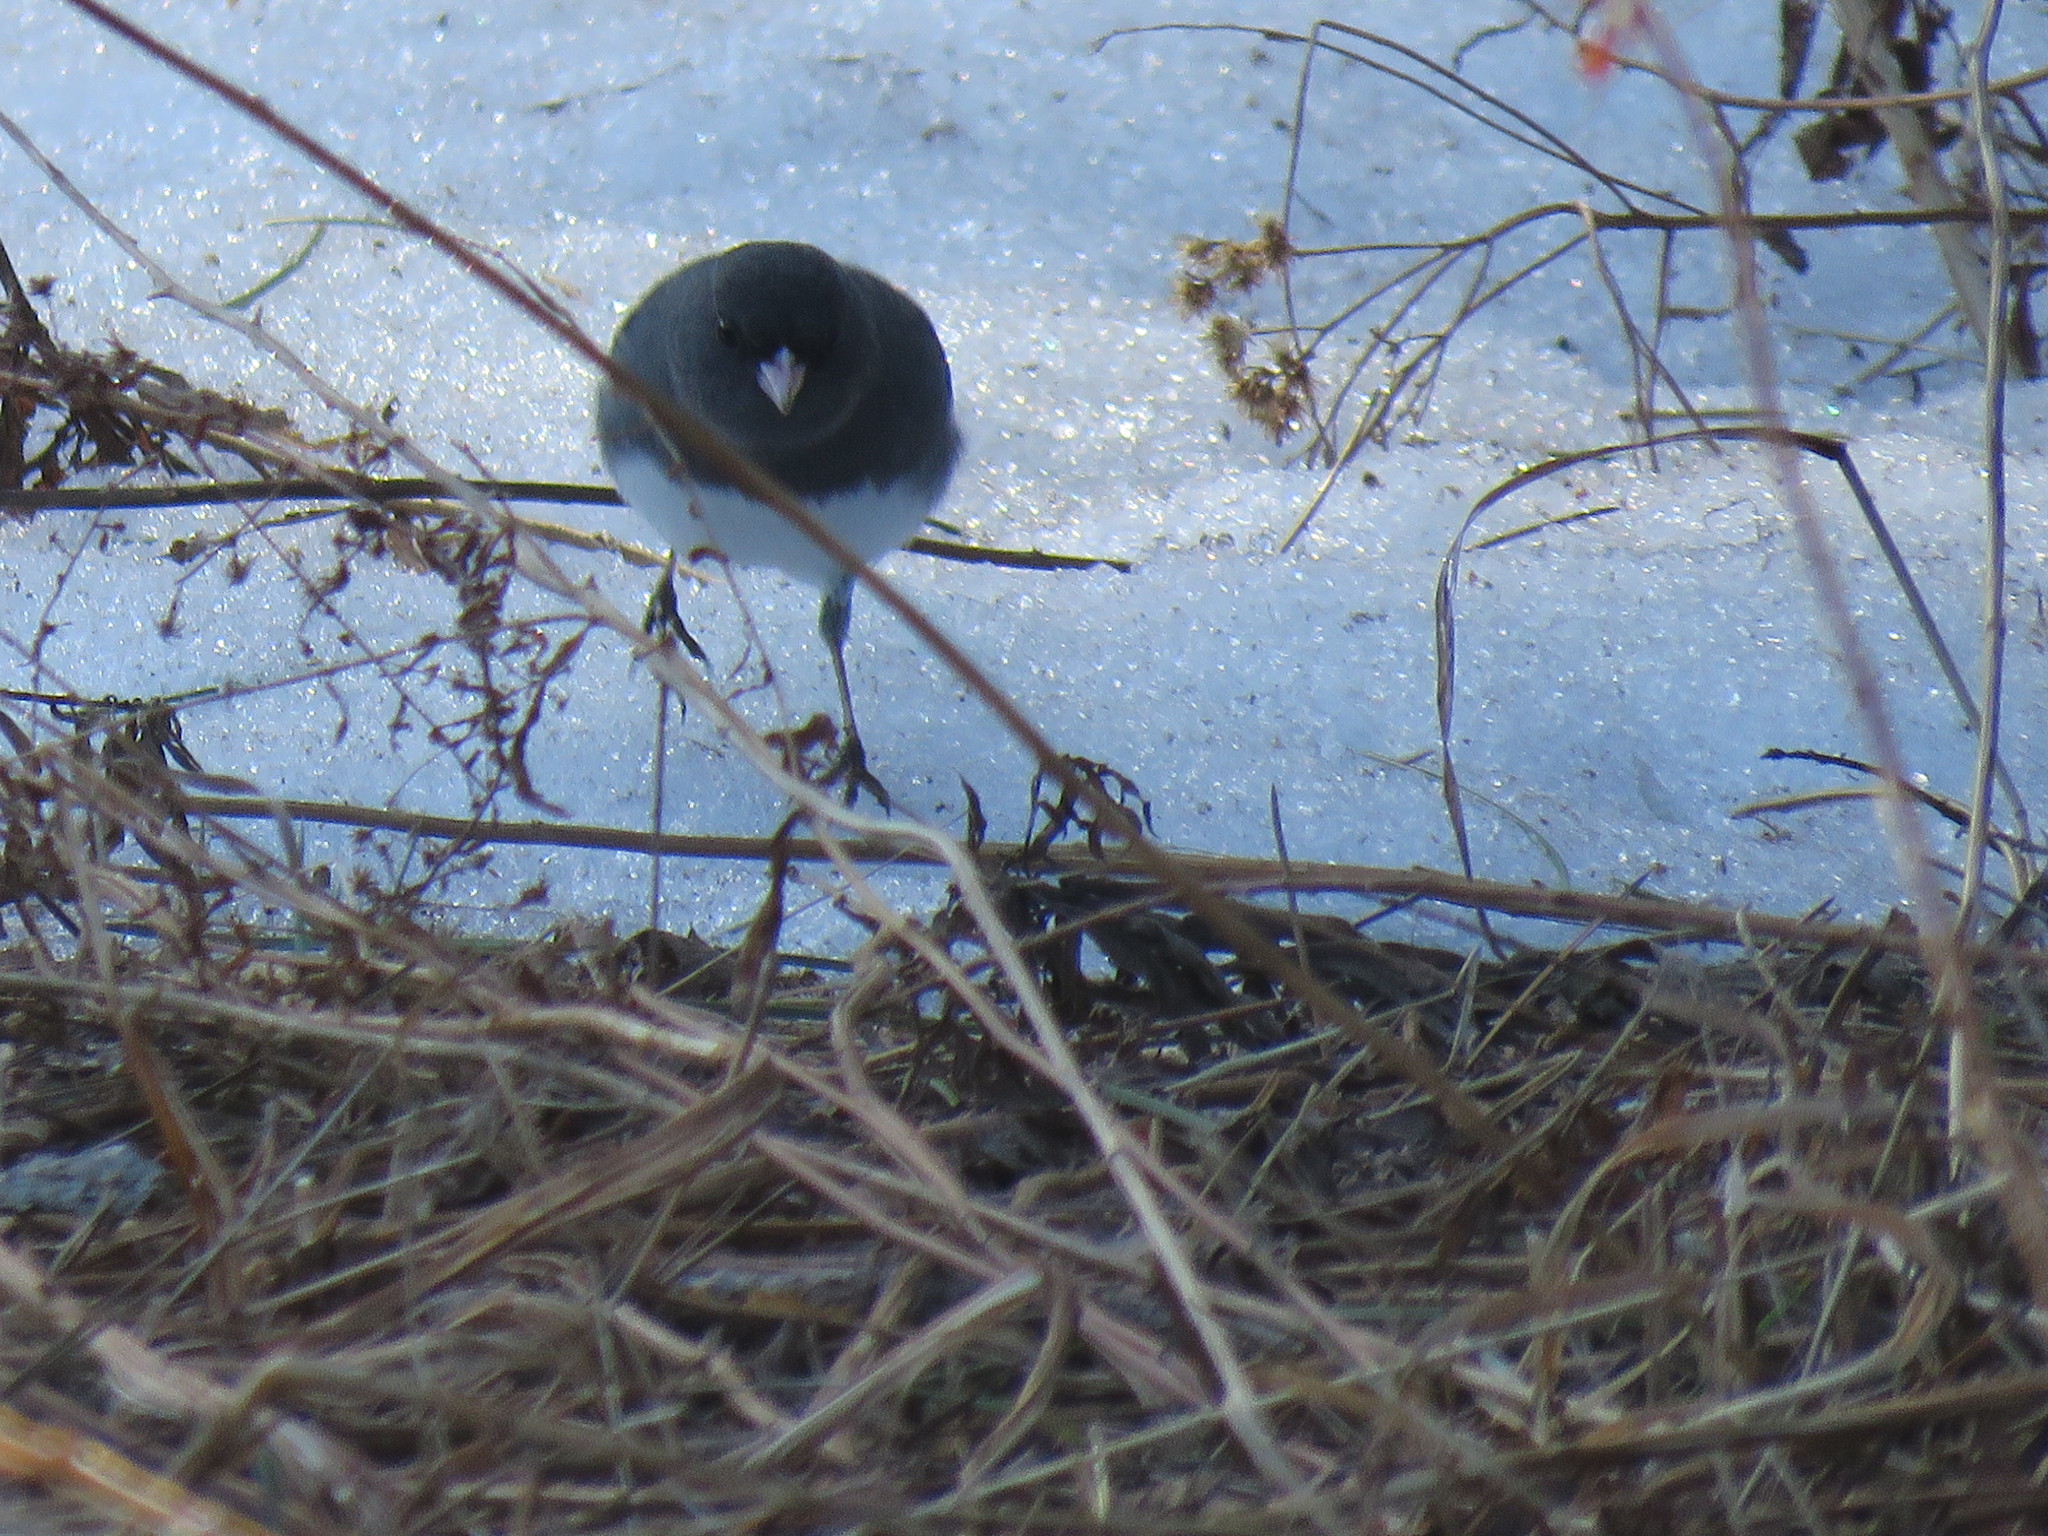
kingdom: Animalia
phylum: Chordata
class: Aves
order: Passeriformes
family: Passerellidae
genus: Junco
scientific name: Junco hyemalis
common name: Dark-eyed junco
